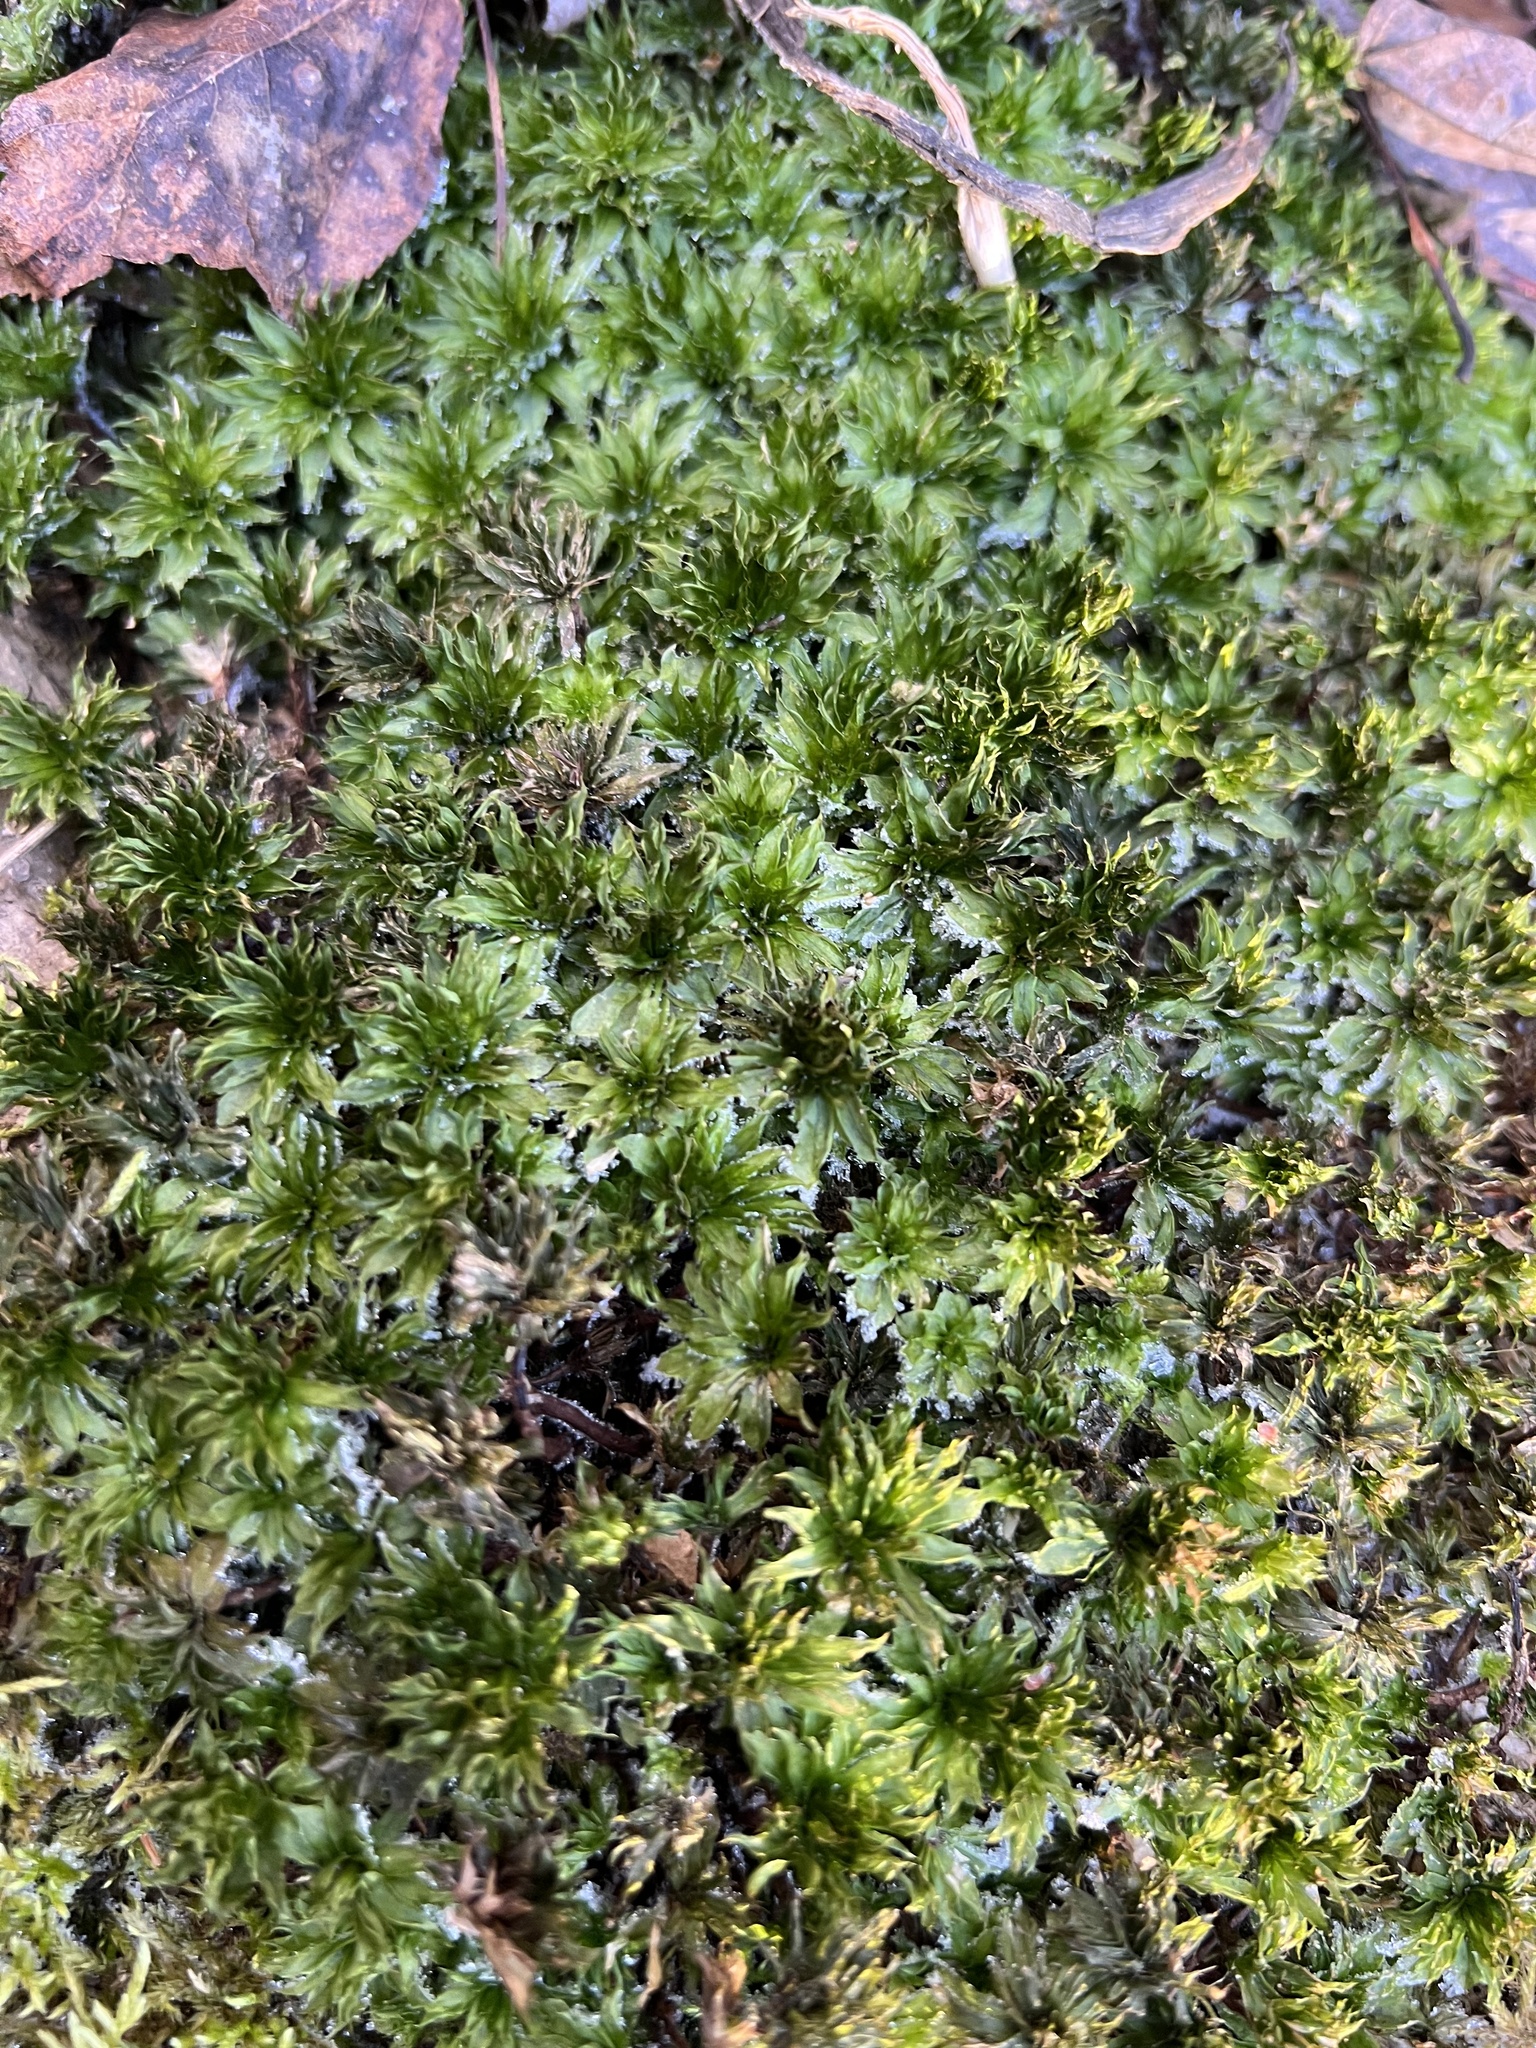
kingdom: Plantae
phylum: Bryophyta
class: Bryopsida
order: Bryales
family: Bryaceae
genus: Rhodobryum
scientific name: Rhodobryum ontariense
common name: Ontario rhodobryum moss
